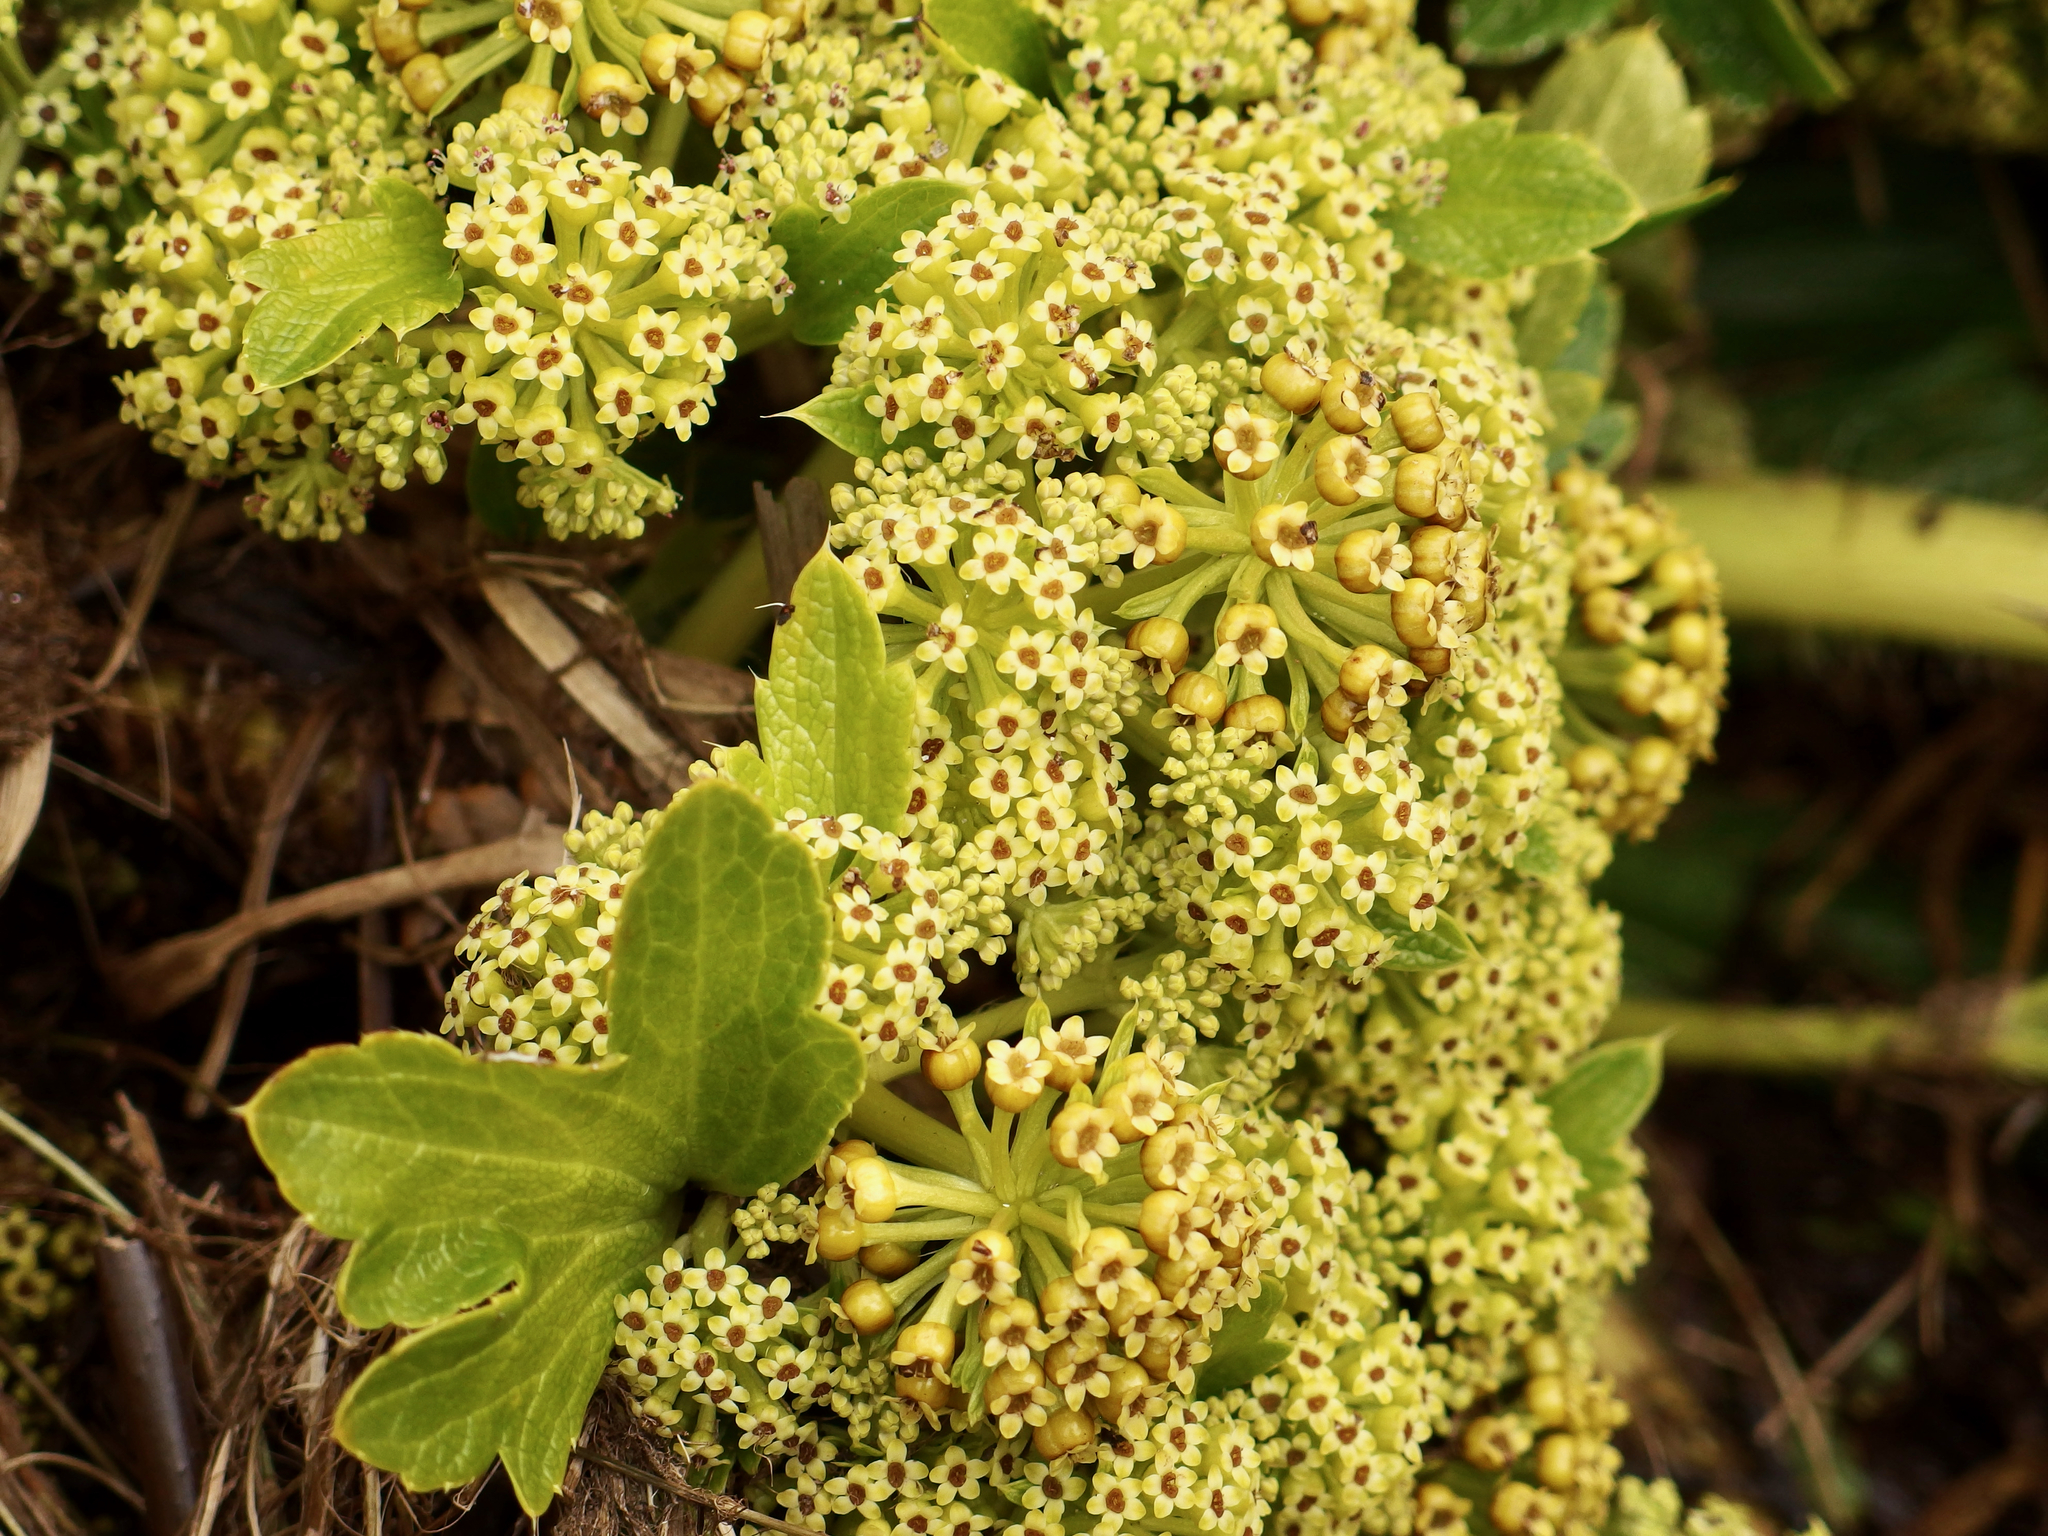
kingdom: Plantae
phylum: Tracheophyta
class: Magnoliopsida
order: Apiales
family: Apiaceae
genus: Azorella
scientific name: Azorella polaris
